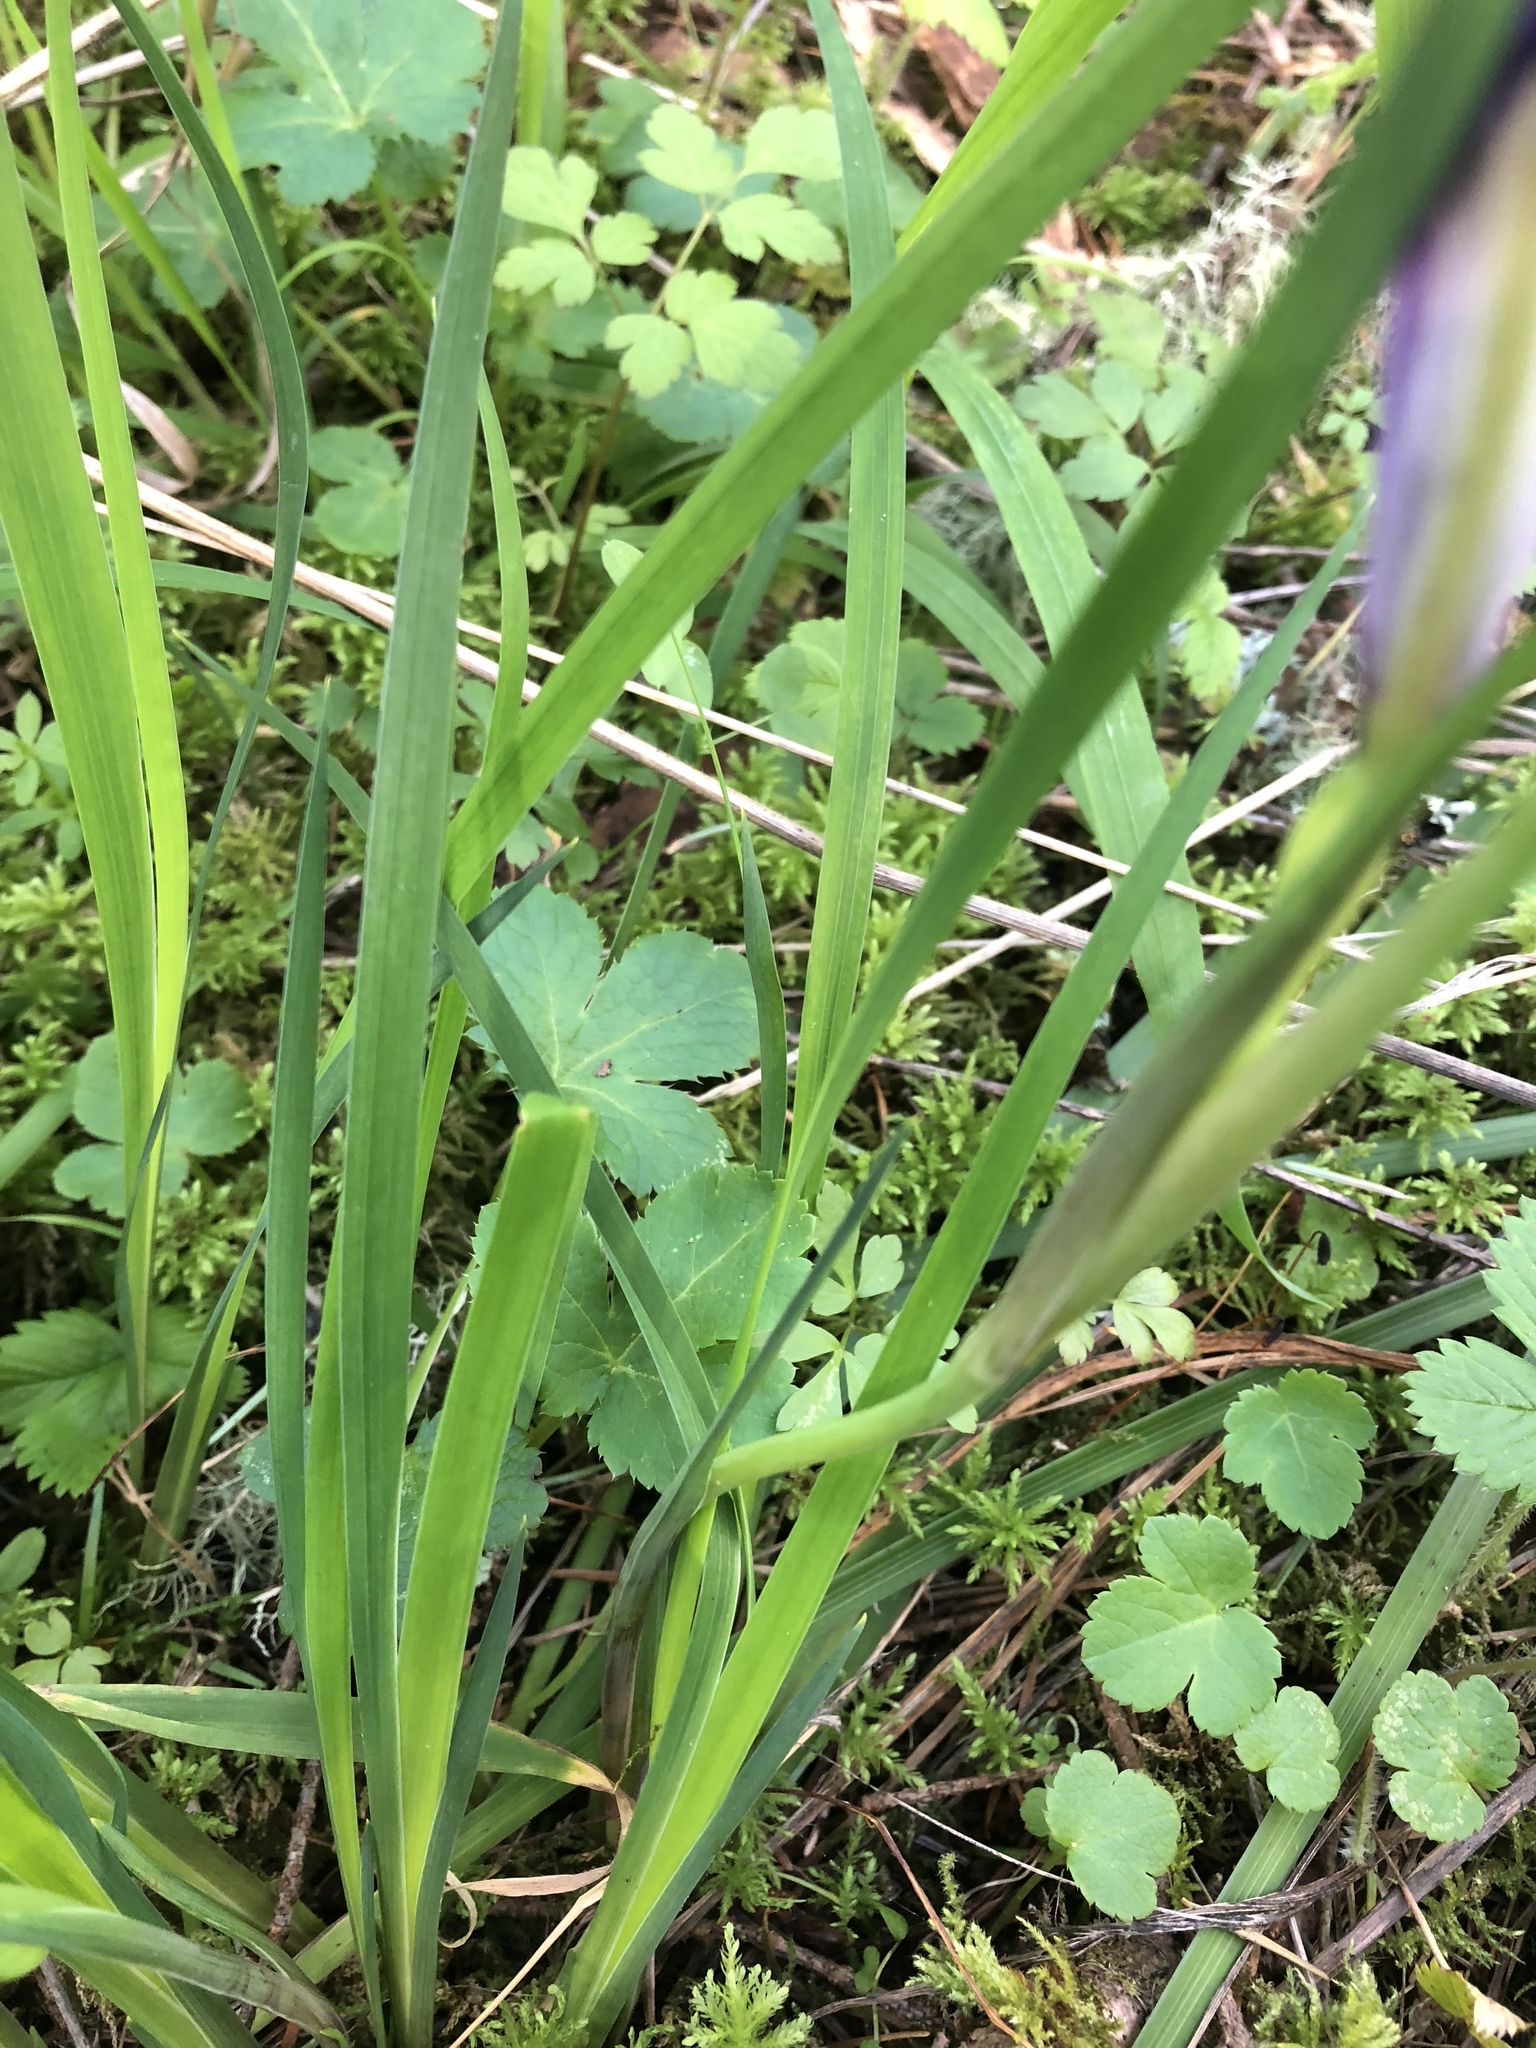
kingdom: Plantae
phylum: Tracheophyta
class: Liliopsida
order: Asparagales
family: Iridaceae
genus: Iris
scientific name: Iris tenax
